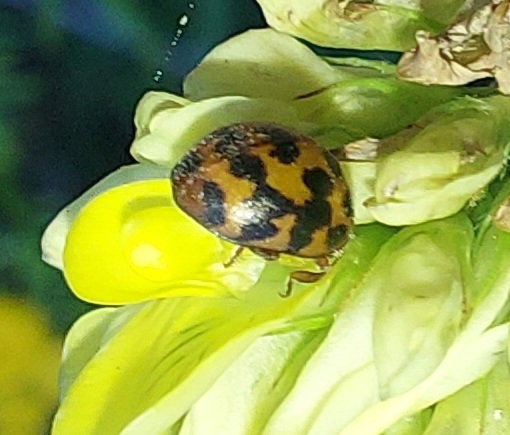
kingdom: Animalia
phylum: Arthropoda
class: Insecta
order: Coleoptera
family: Coccinellidae
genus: Subcoccinella
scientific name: Subcoccinella vigintiquatuorpunctata
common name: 24-spot ladybird
